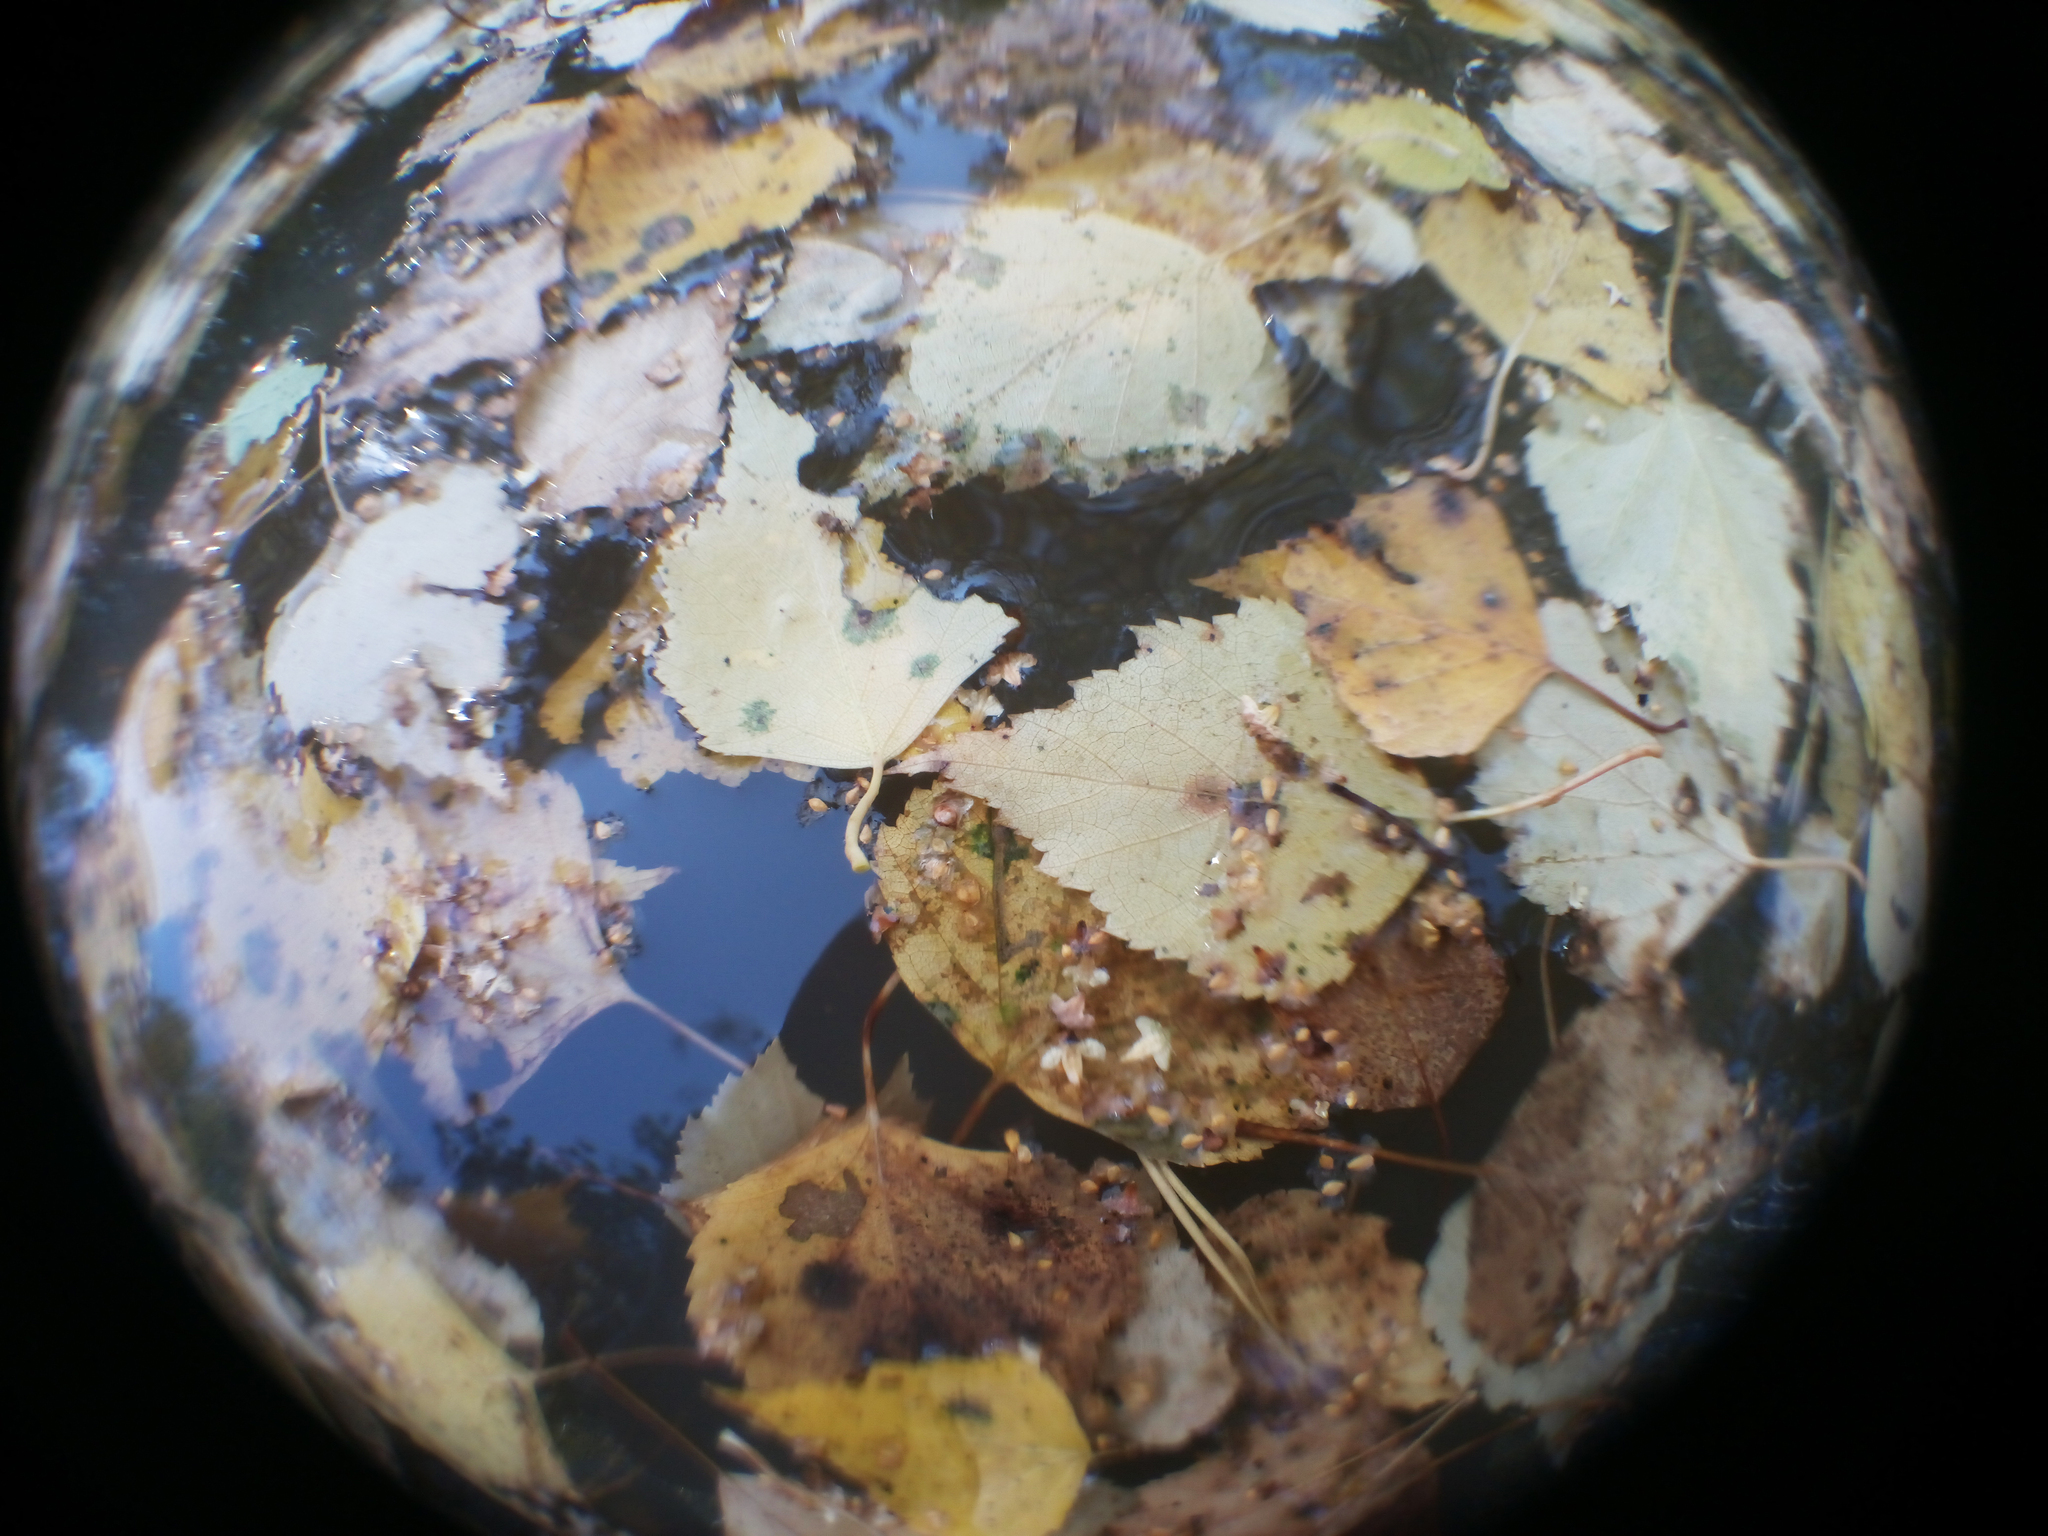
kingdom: Plantae
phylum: Tracheophyta
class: Magnoliopsida
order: Fagales
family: Betulaceae
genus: Betula
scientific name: Betula pendula
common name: Silver birch
